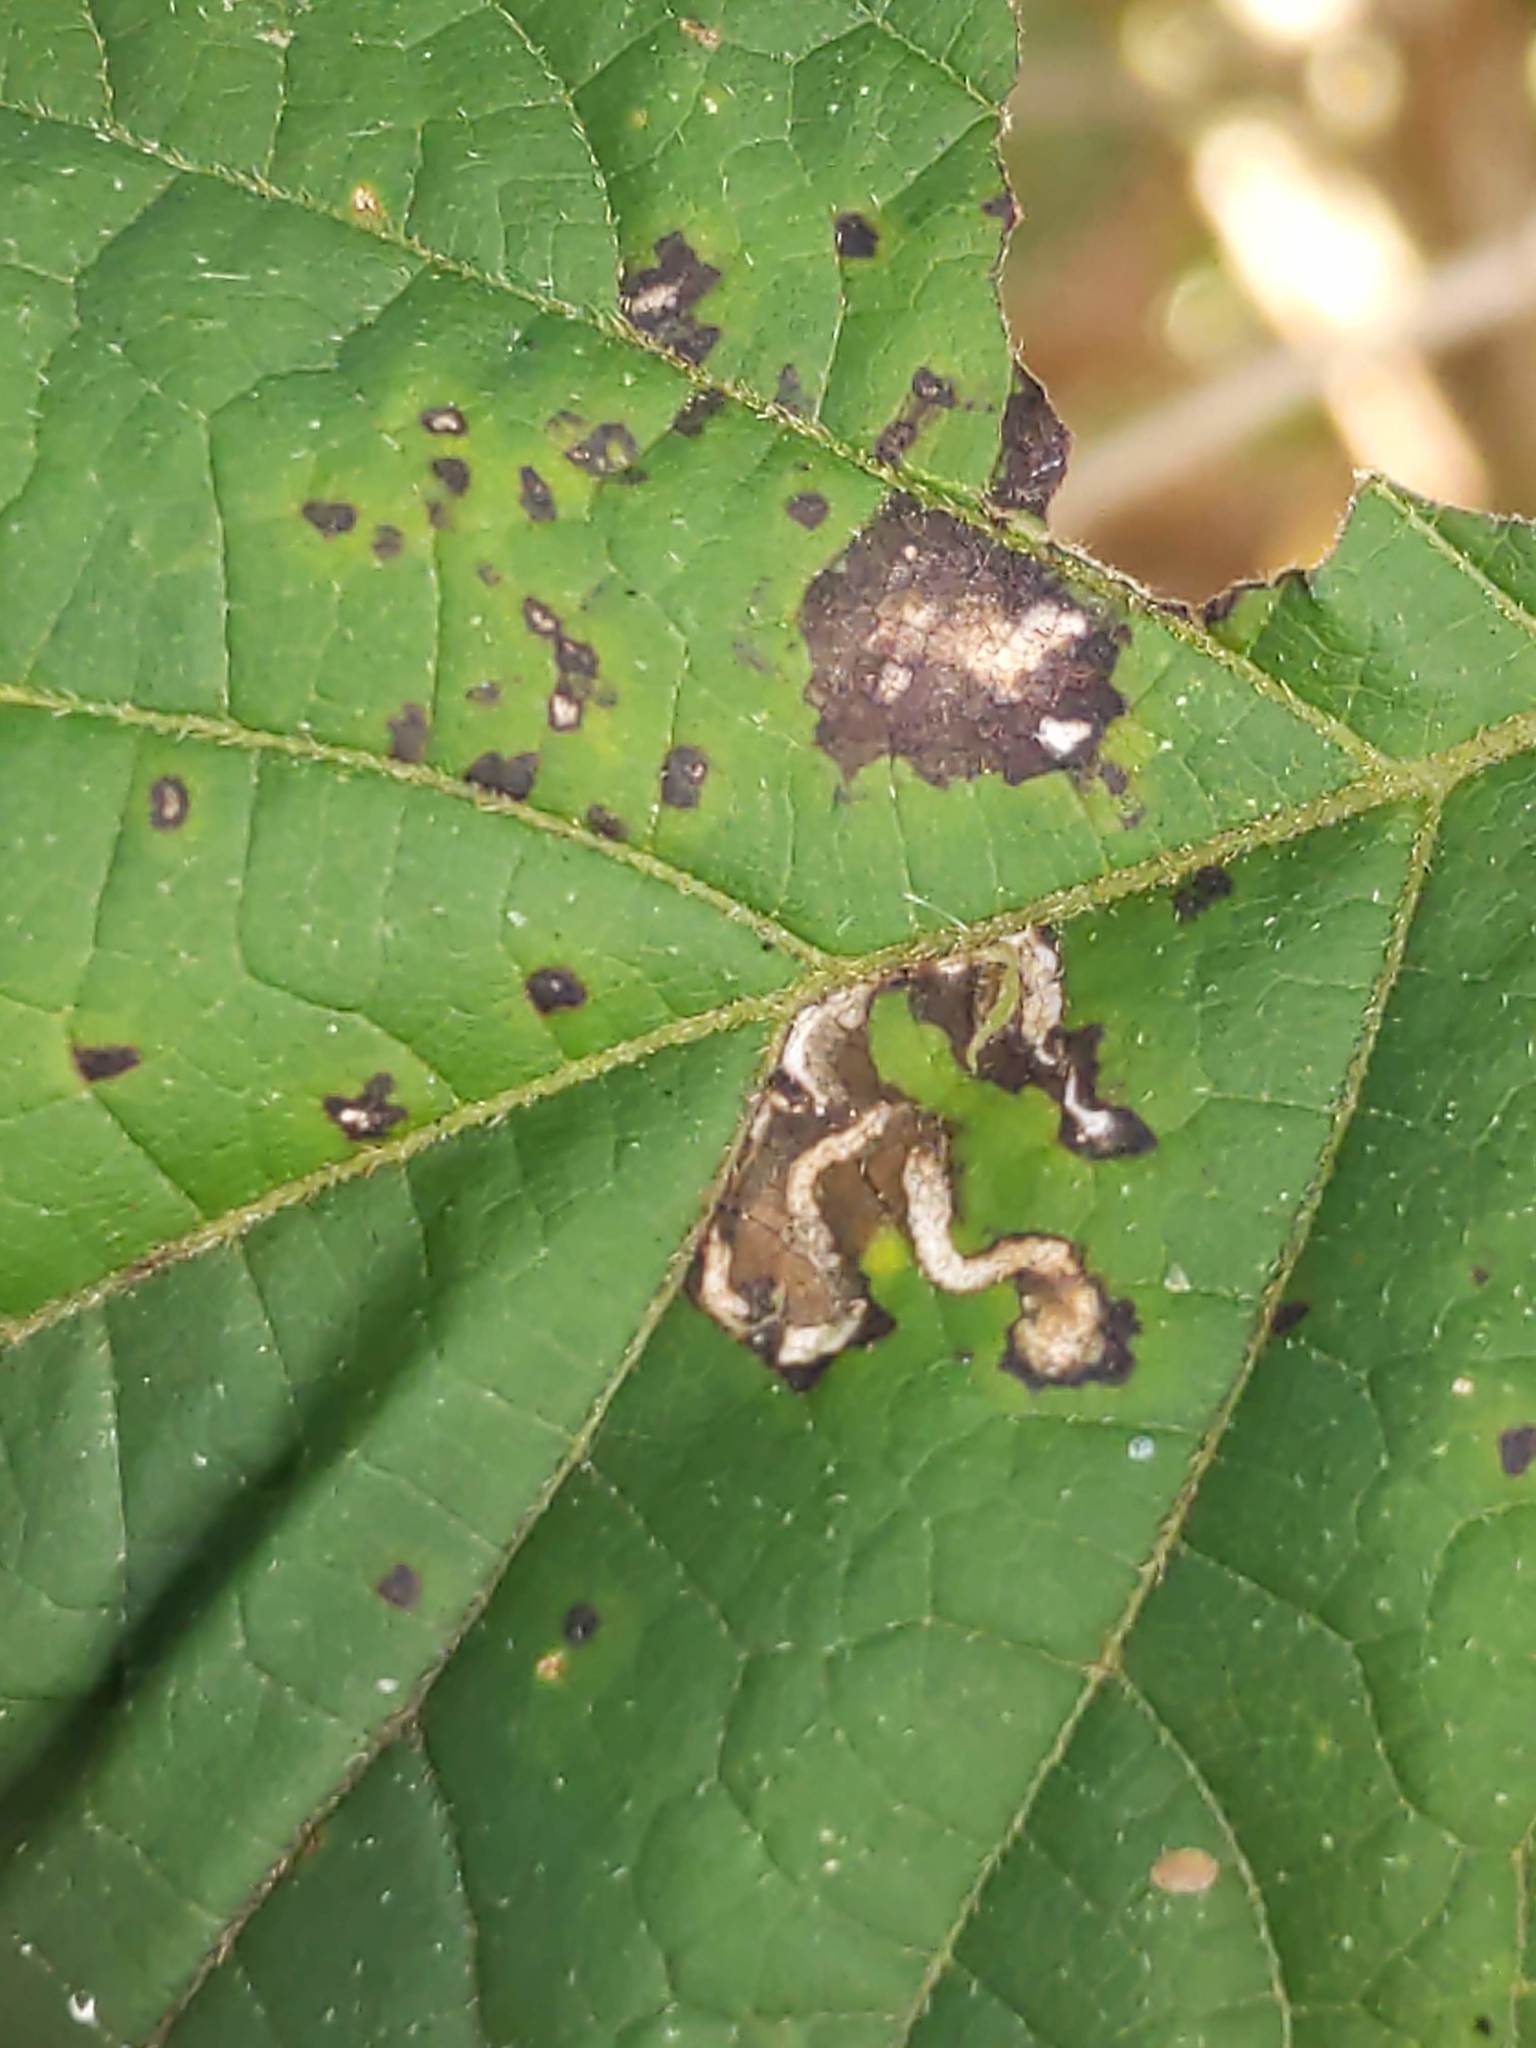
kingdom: Animalia
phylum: Arthropoda
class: Insecta
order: Lepidoptera
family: Heliozelidae
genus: Aspilanta
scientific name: Aspilanta hydrangaeella
